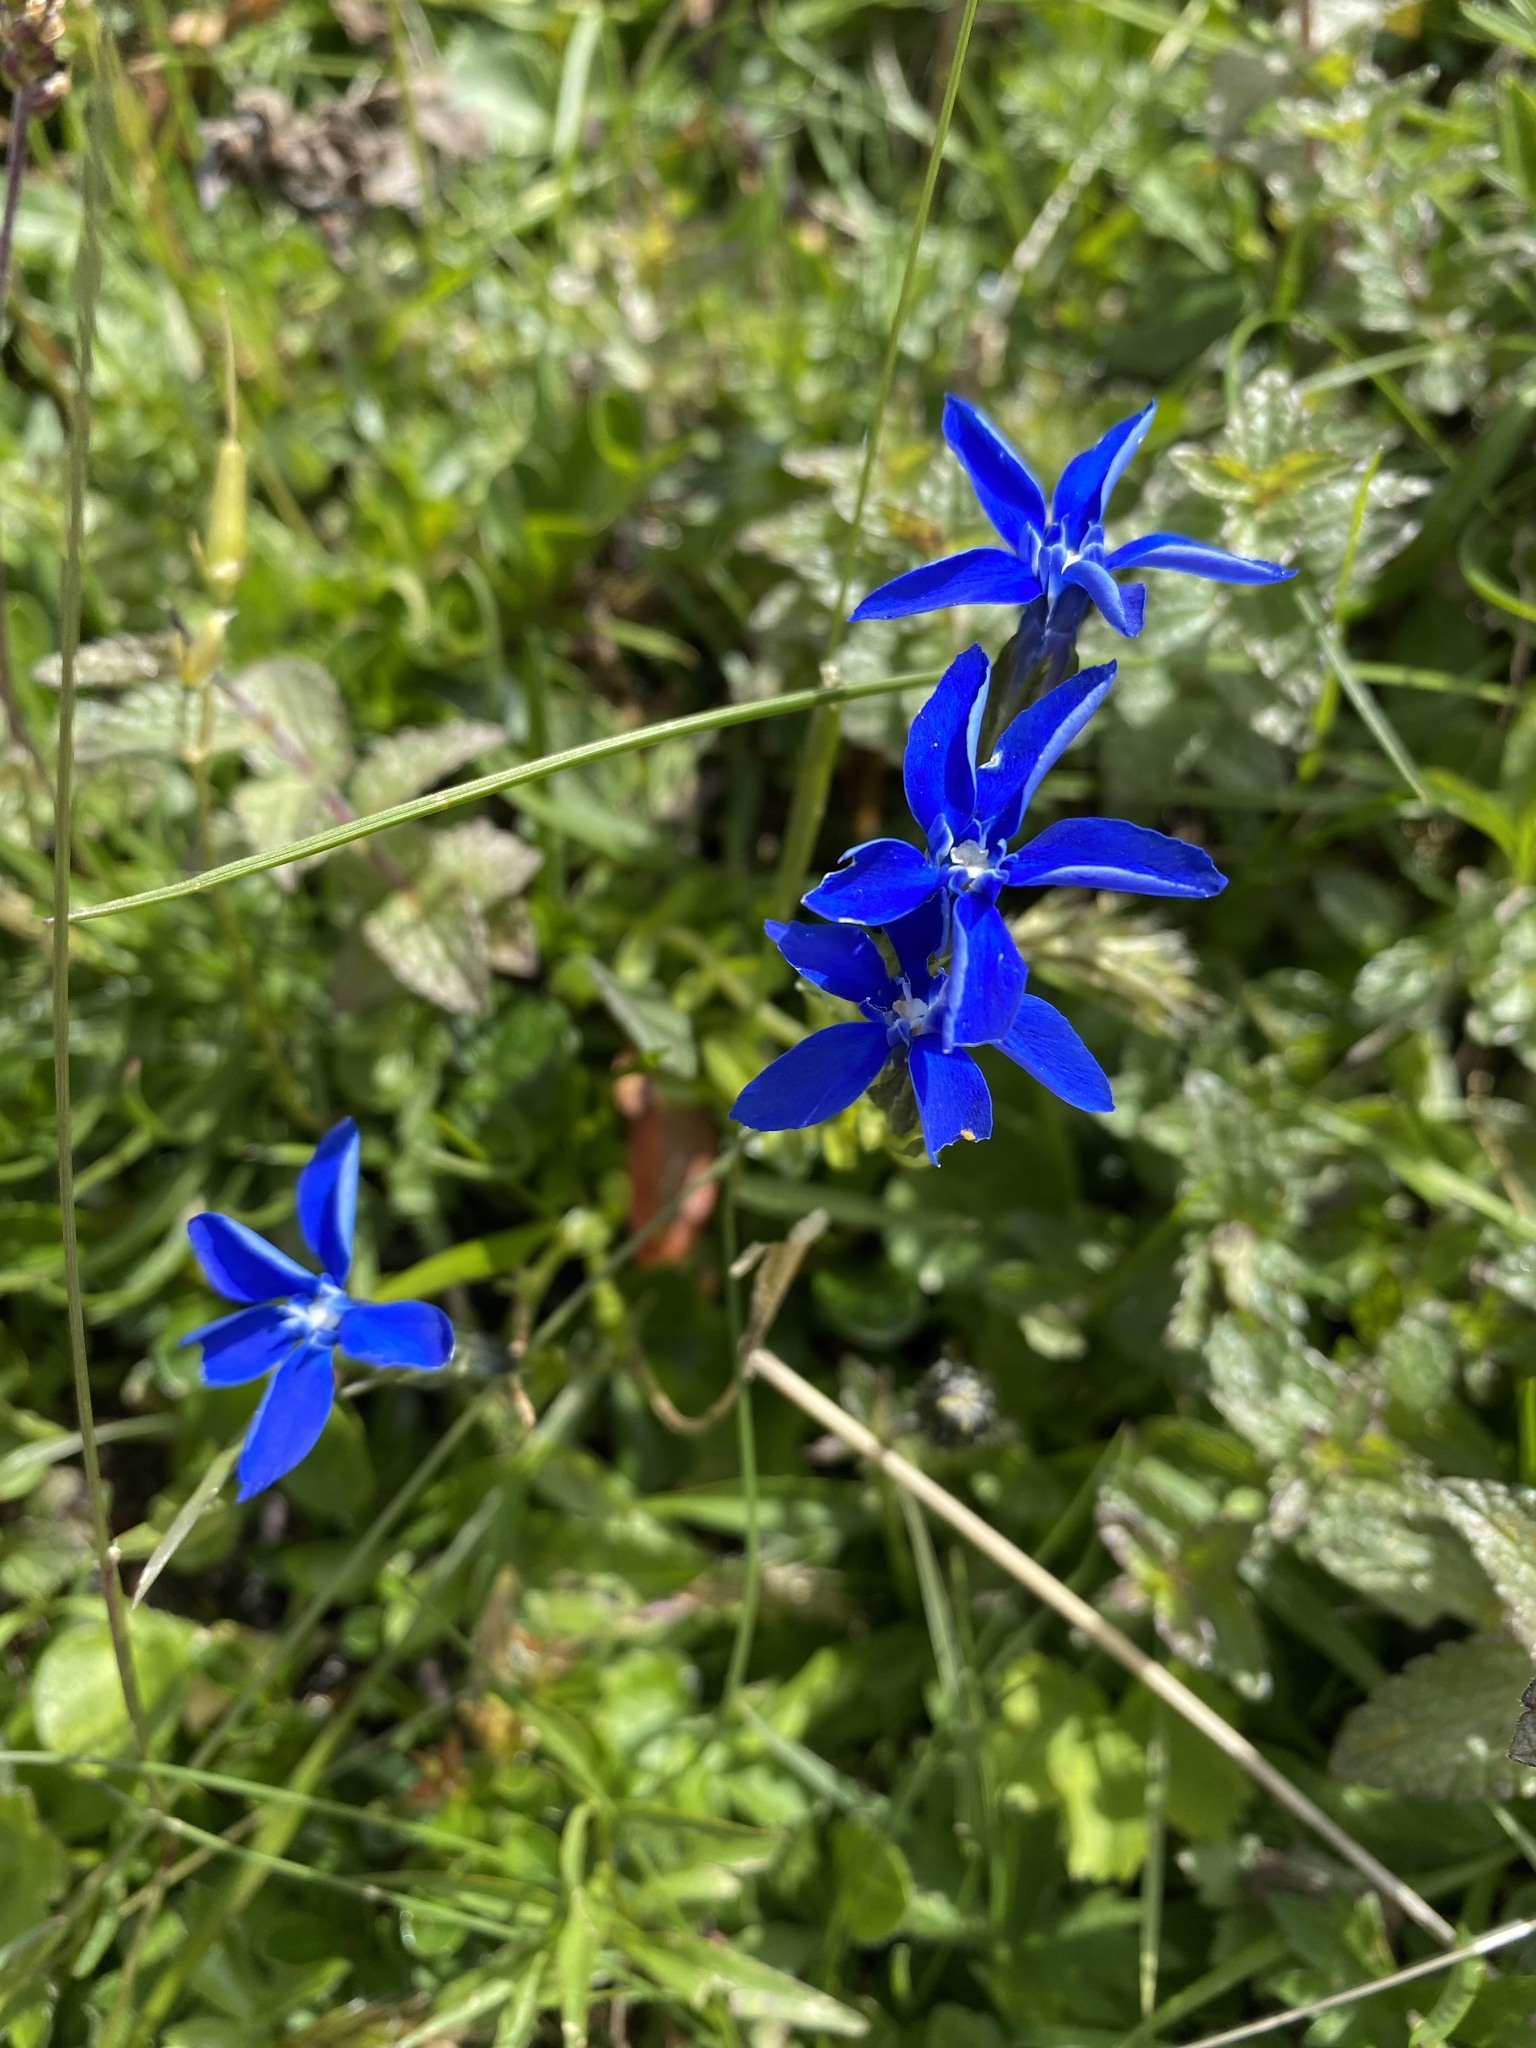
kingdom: Plantae
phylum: Tracheophyta
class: Magnoliopsida
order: Gentianales
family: Gentianaceae
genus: Gentiana
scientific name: Gentiana bavarica
